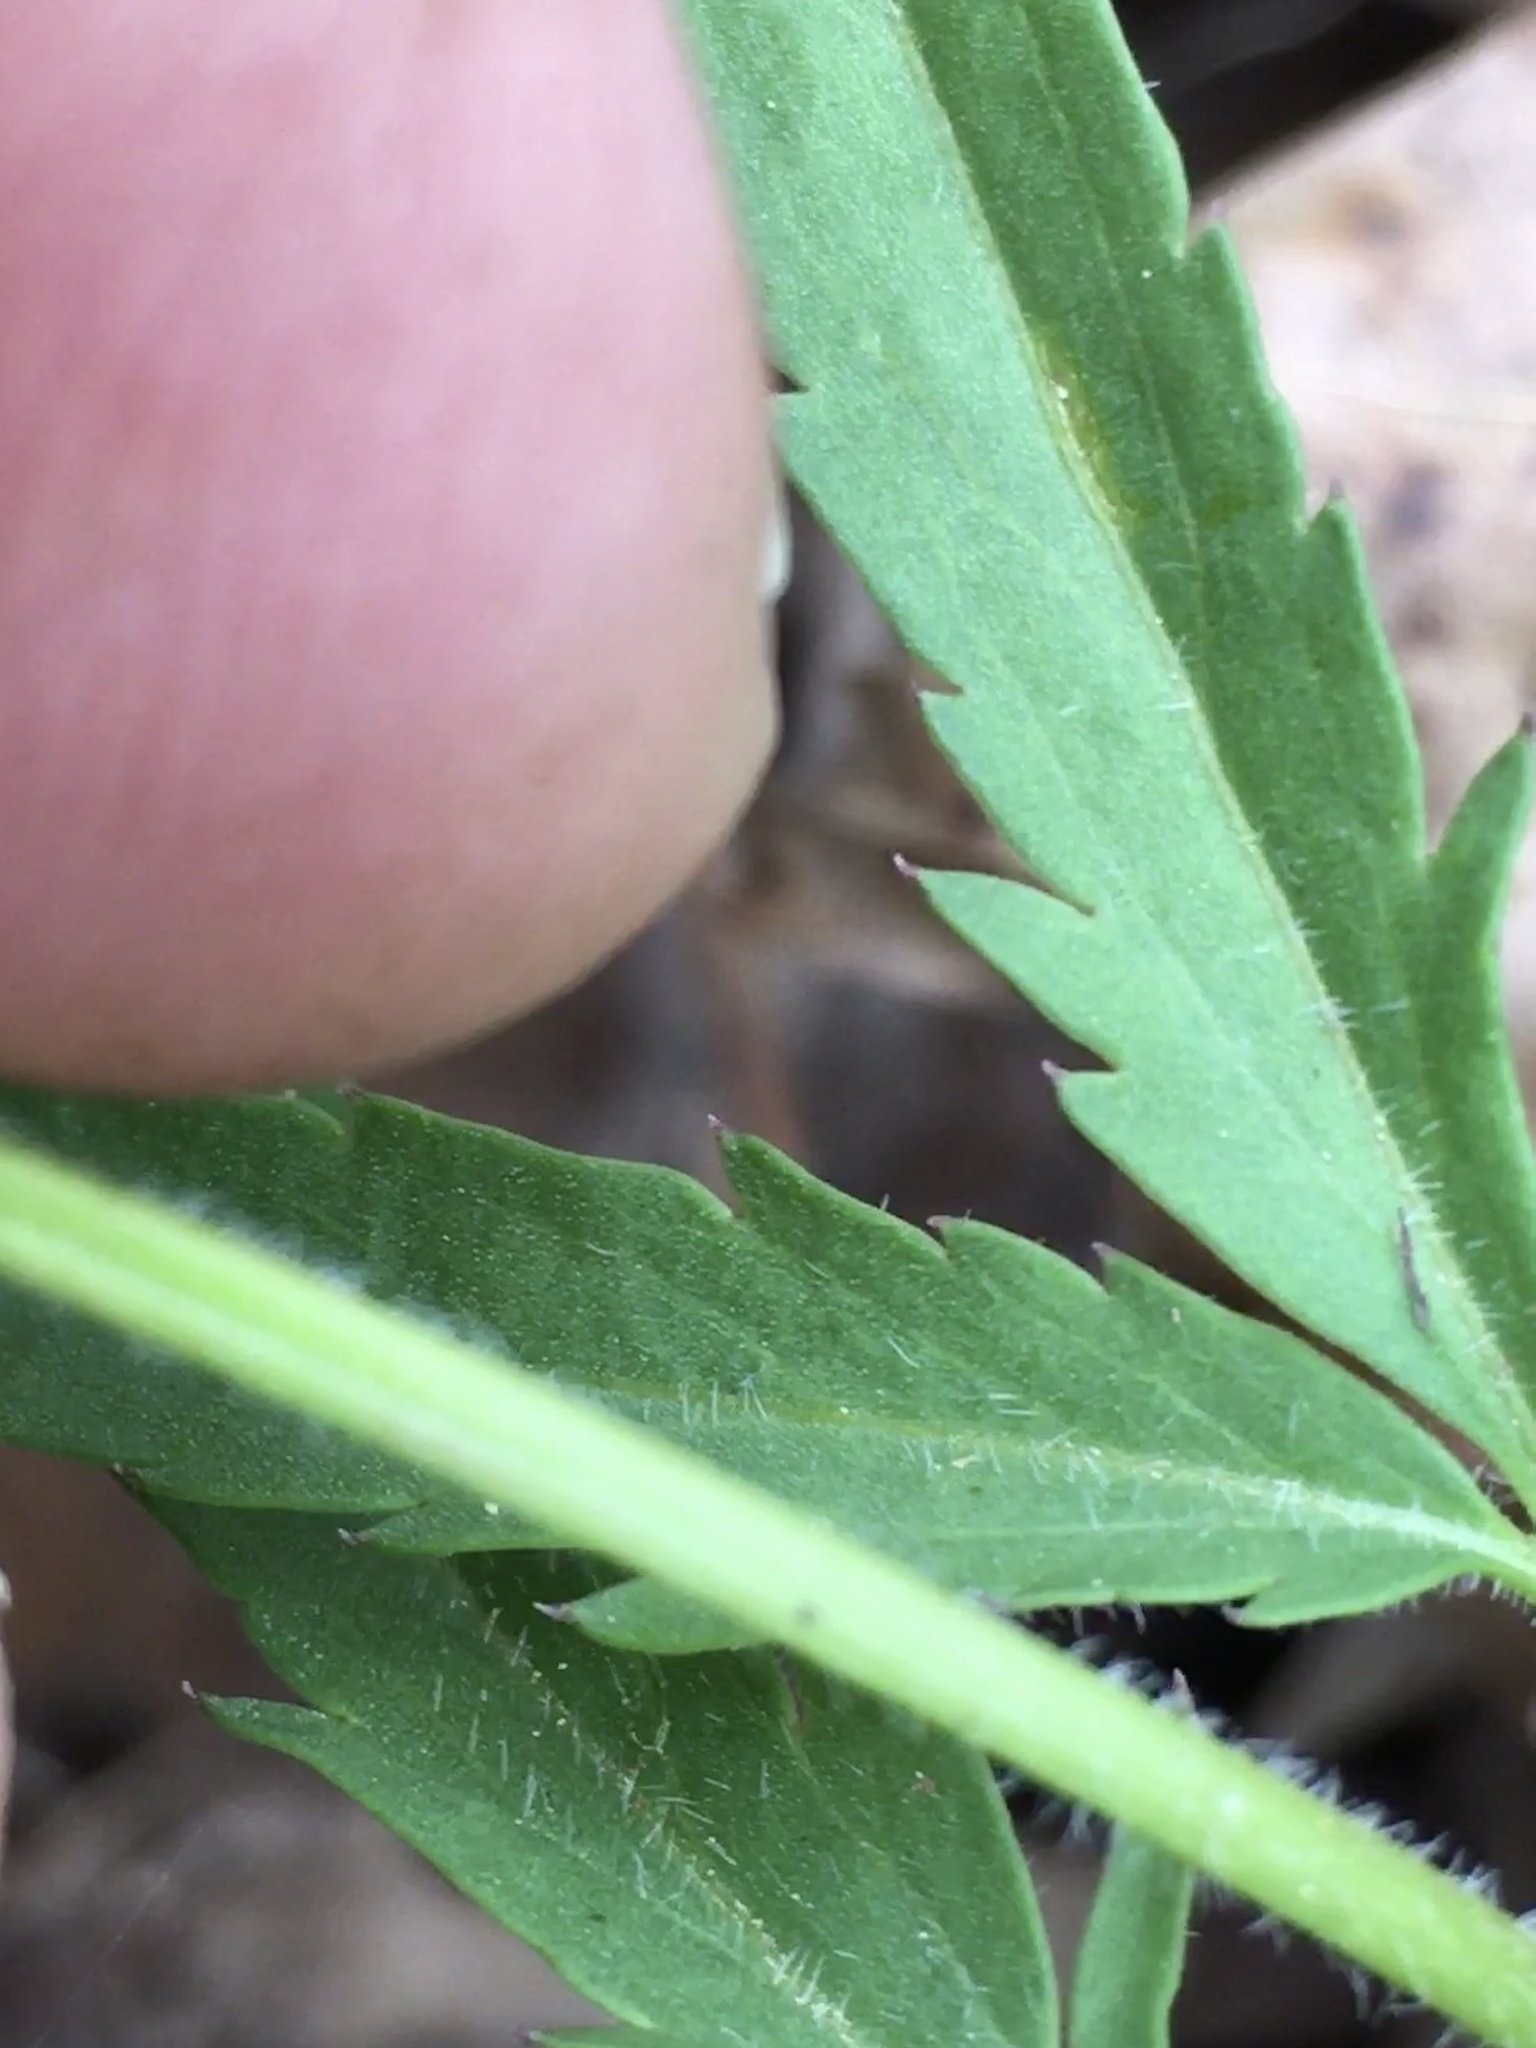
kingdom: Plantae
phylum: Tracheophyta
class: Magnoliopsida
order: Brassicales
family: Brassicaceae
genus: Cardamine
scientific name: Cardamine concatenata
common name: Cut-leaf toothcup
